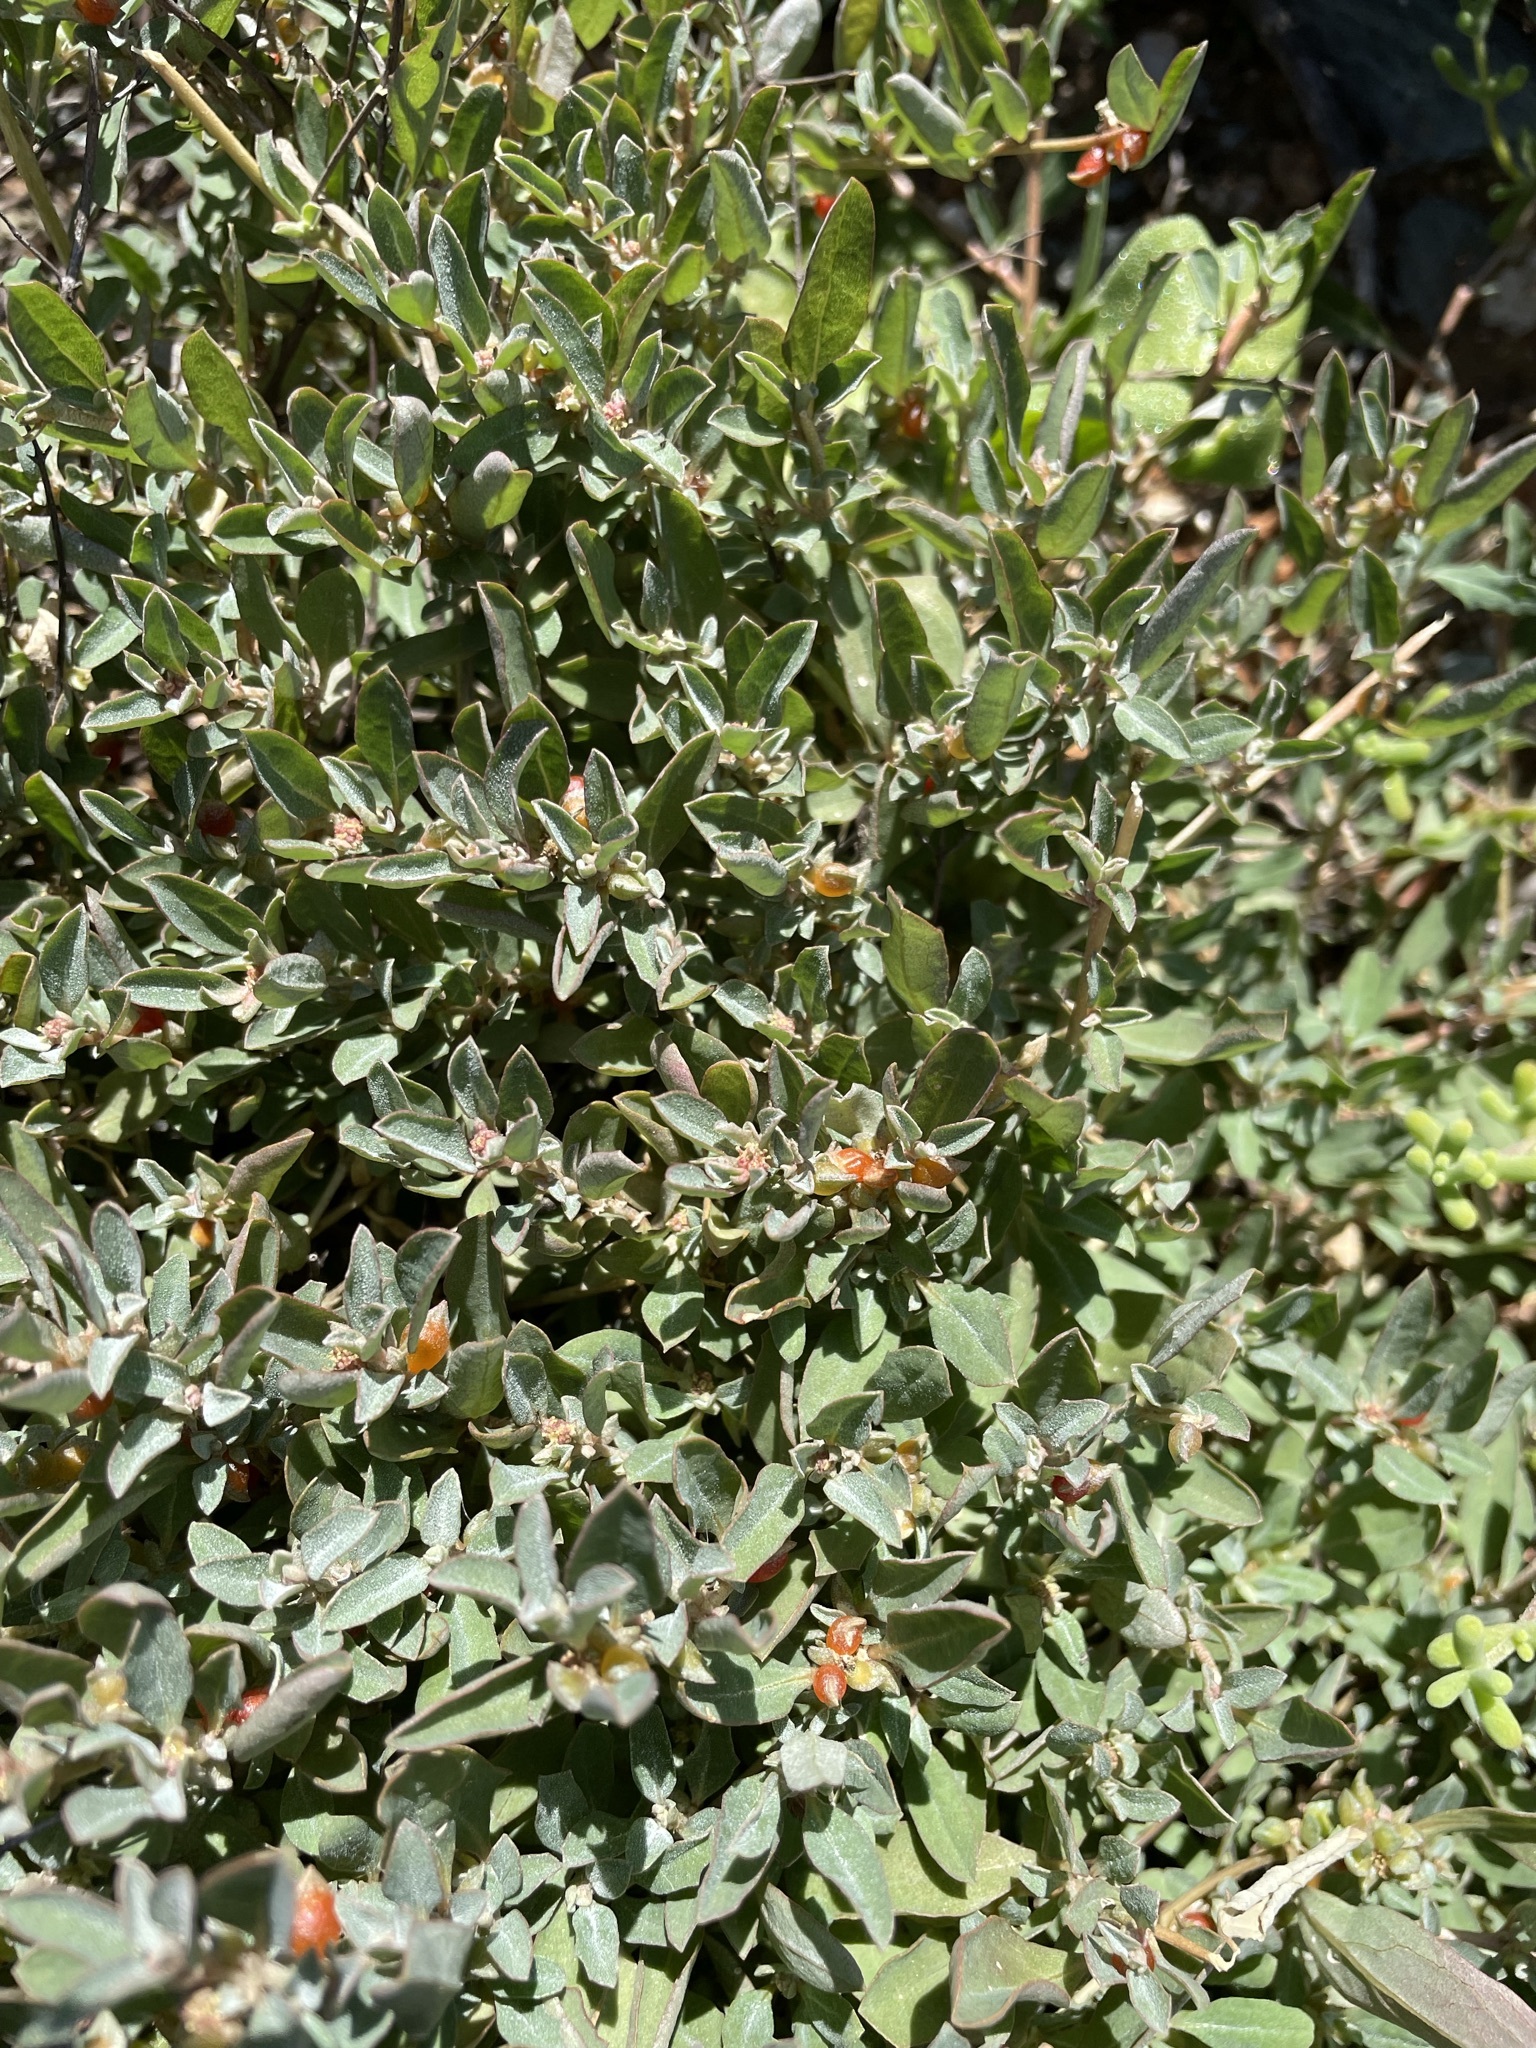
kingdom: Plantae
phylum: Tracheophyta
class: Magnoliopsida
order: Caryophyllales
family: Amaranthaceae
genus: Atriplex
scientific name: Atriplex semibaccata
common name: Australian saltbush
